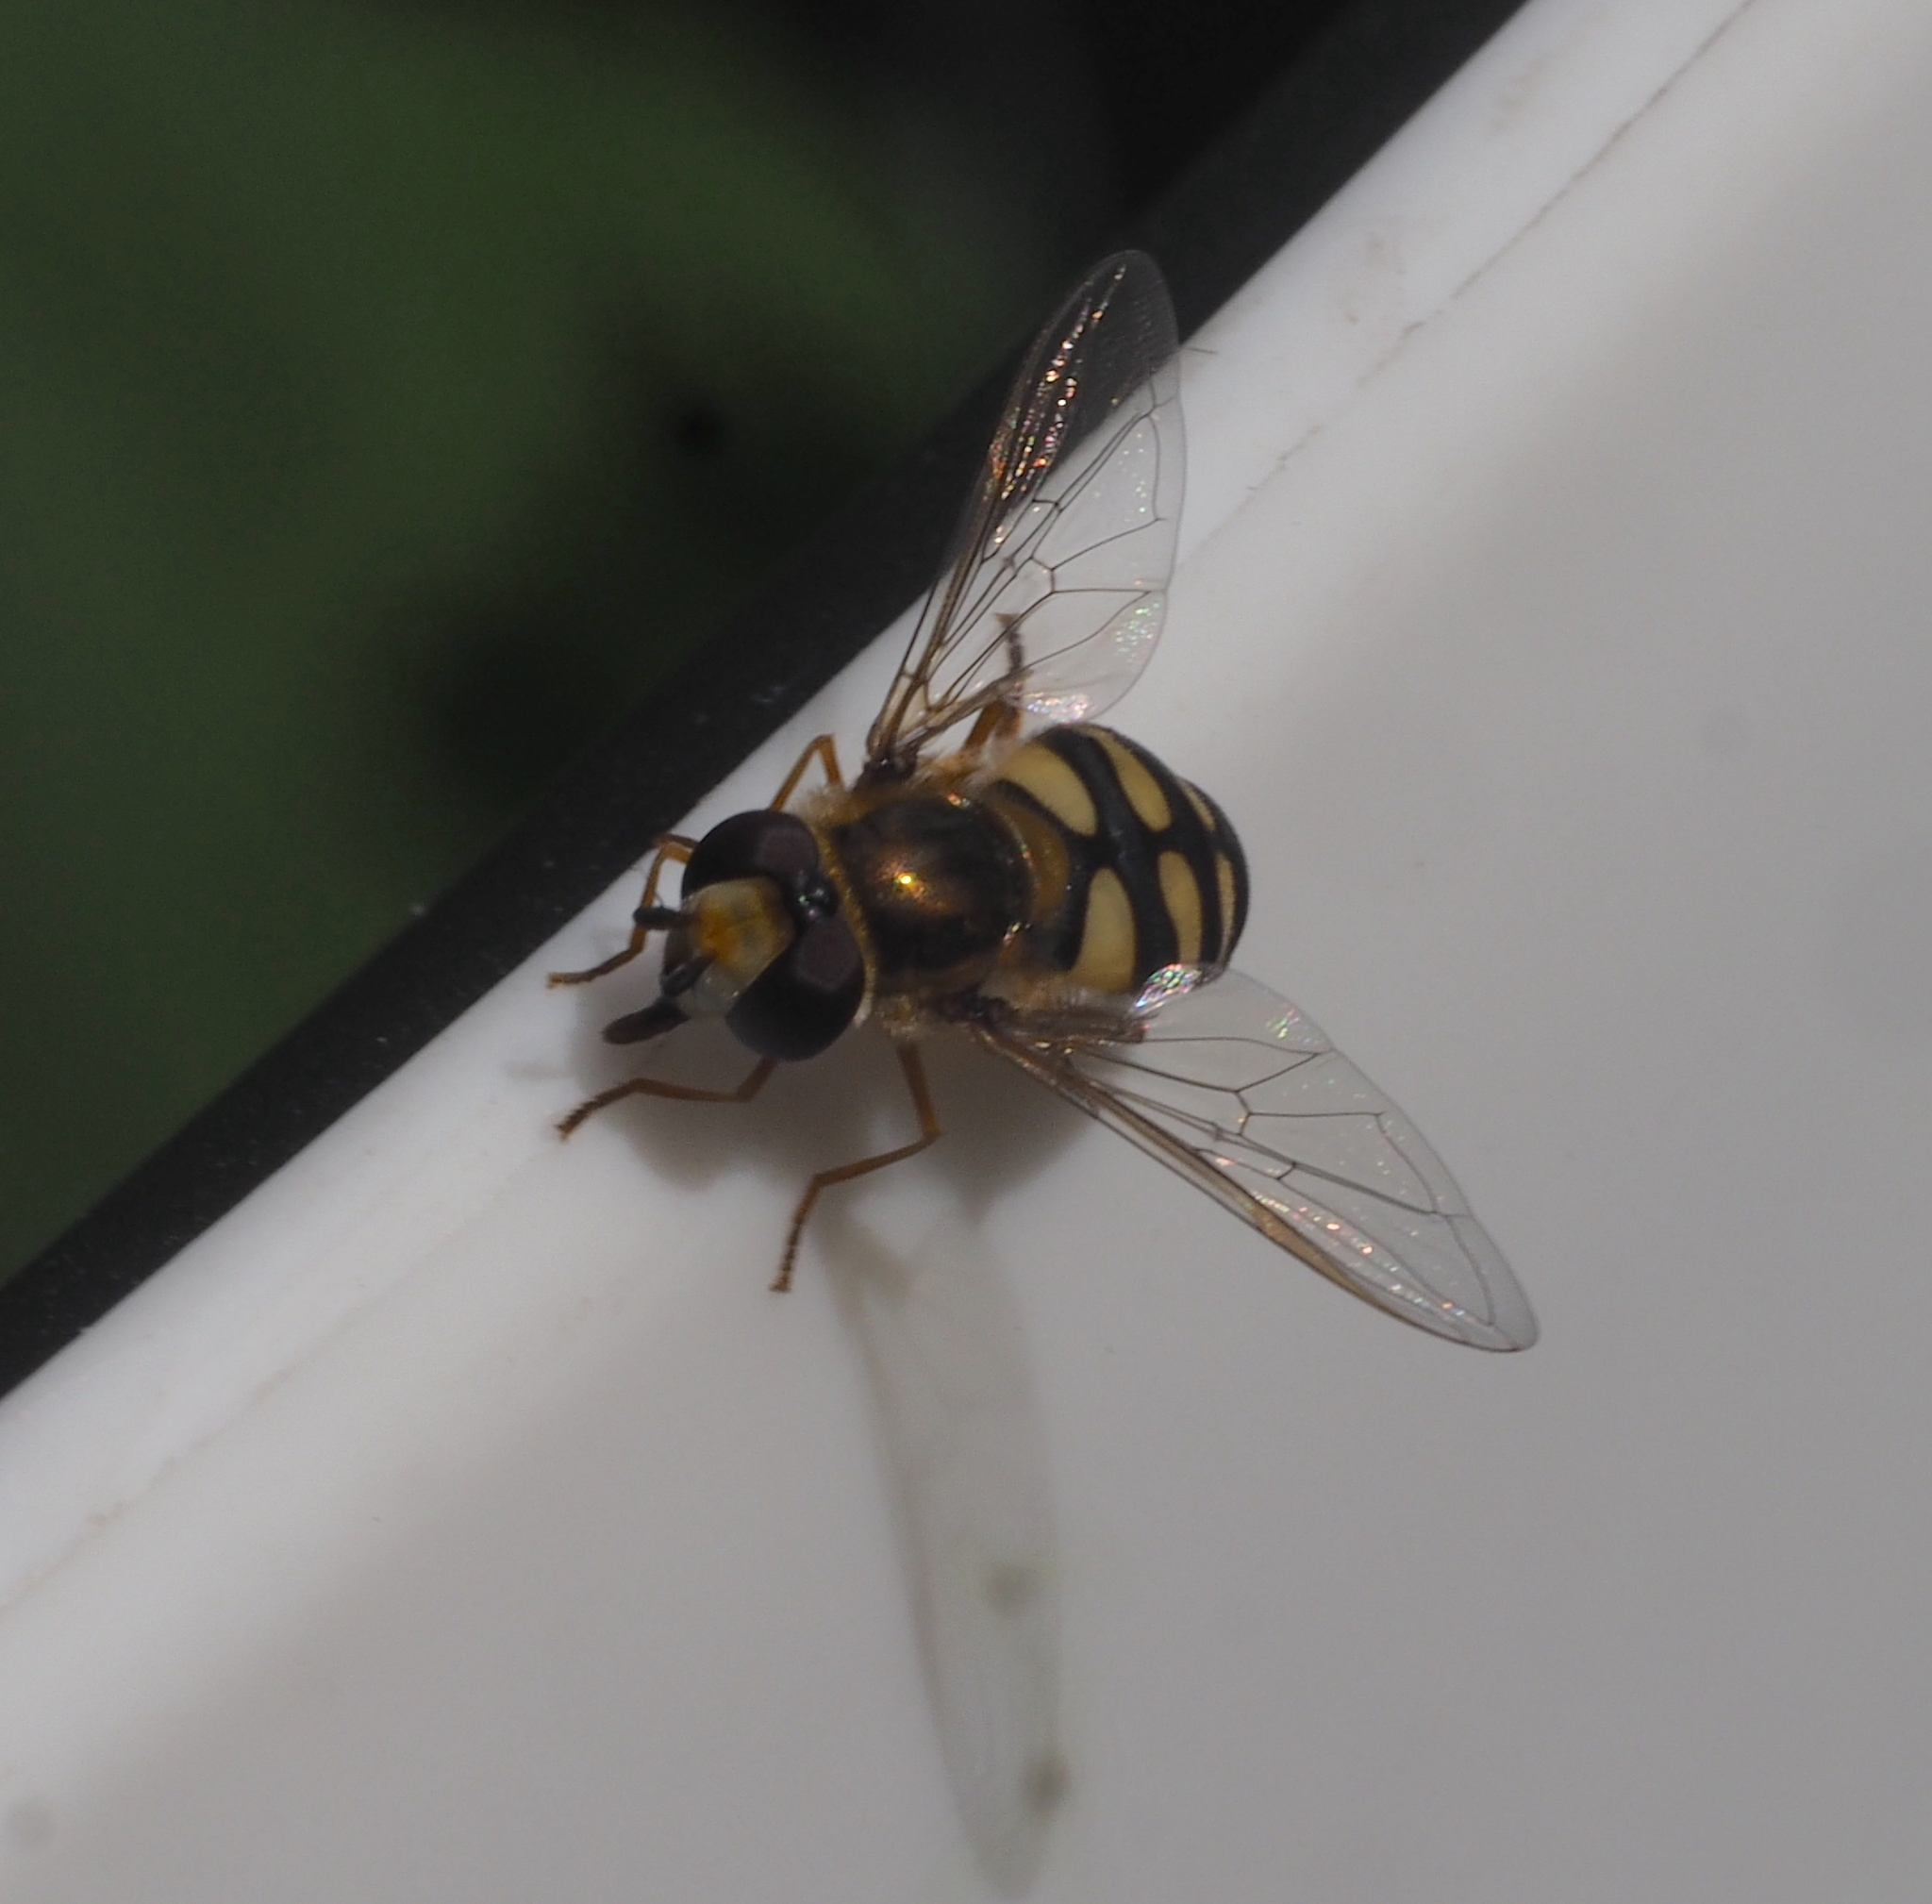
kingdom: Animalia
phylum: Arthropoda
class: Insecta
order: Diptera
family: Syrphidae
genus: Eupeodes
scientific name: Eupeodes corollae
